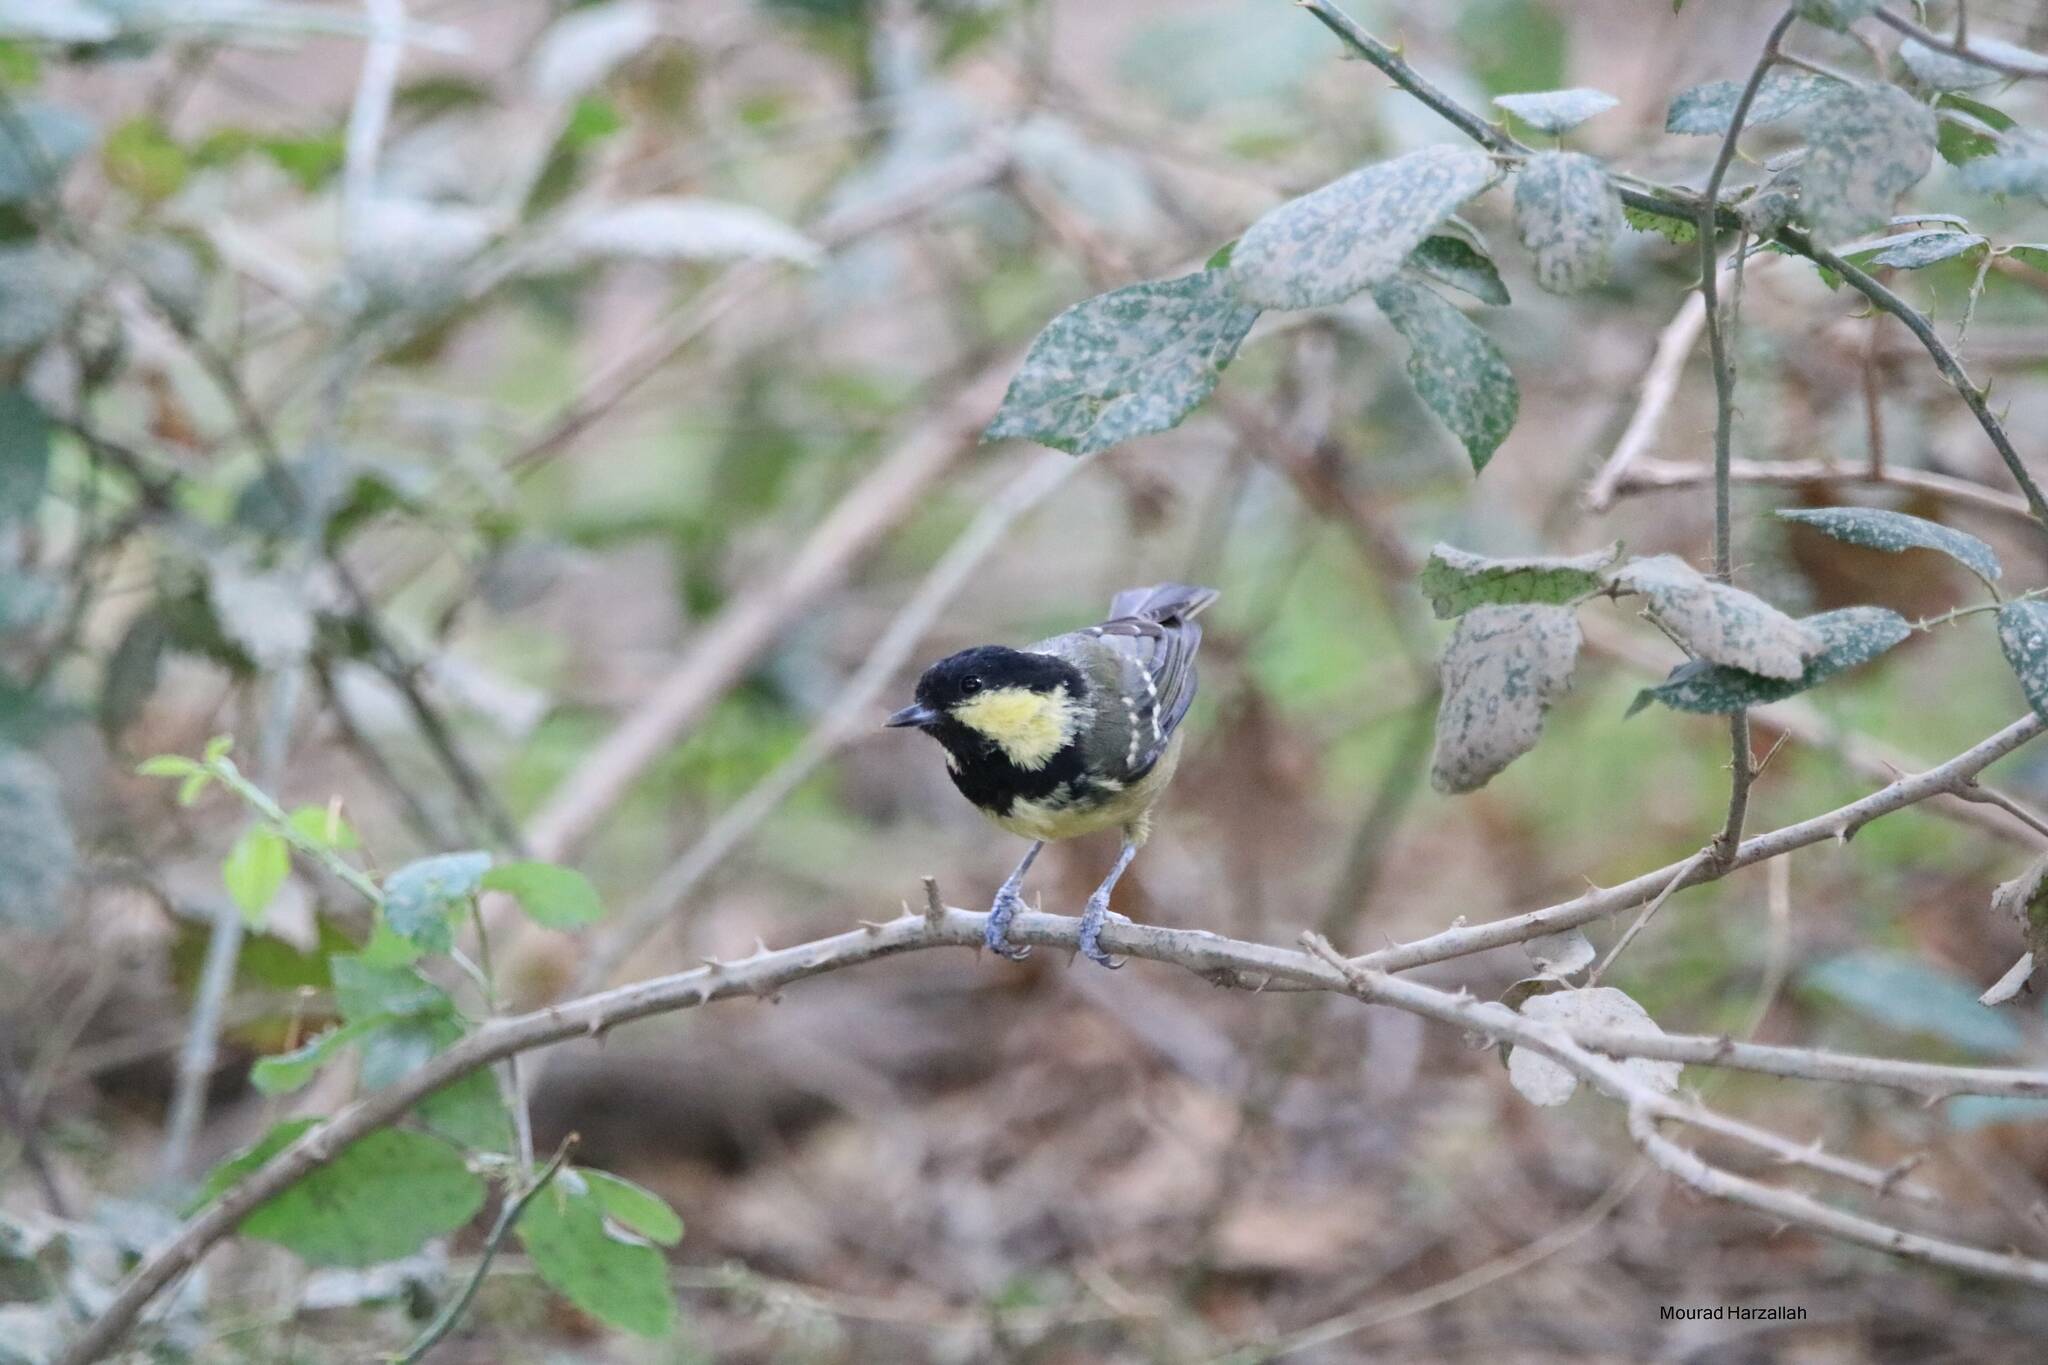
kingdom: Animalia
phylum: Chordata
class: Aves
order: Passeriformes
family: Paridae
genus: Periparus
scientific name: Periparus ater
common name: Coal tit
